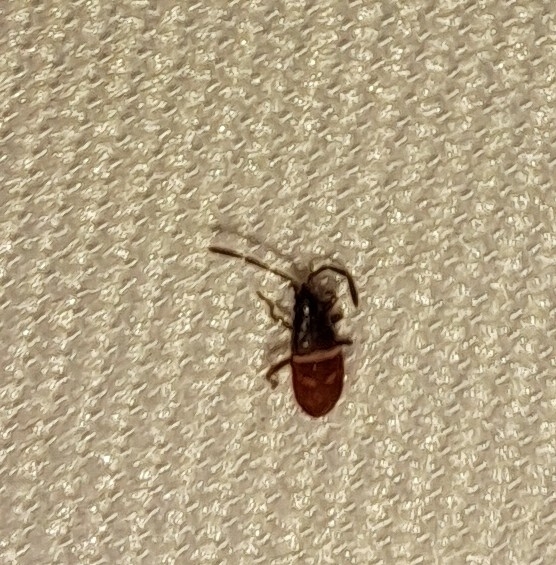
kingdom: Animalia
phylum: Arthropoda
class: Insecta
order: Hemiptera
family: Rhyparochromidae
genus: Gastrodes
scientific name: Gastrodes grossipes
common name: Pine cone bug
